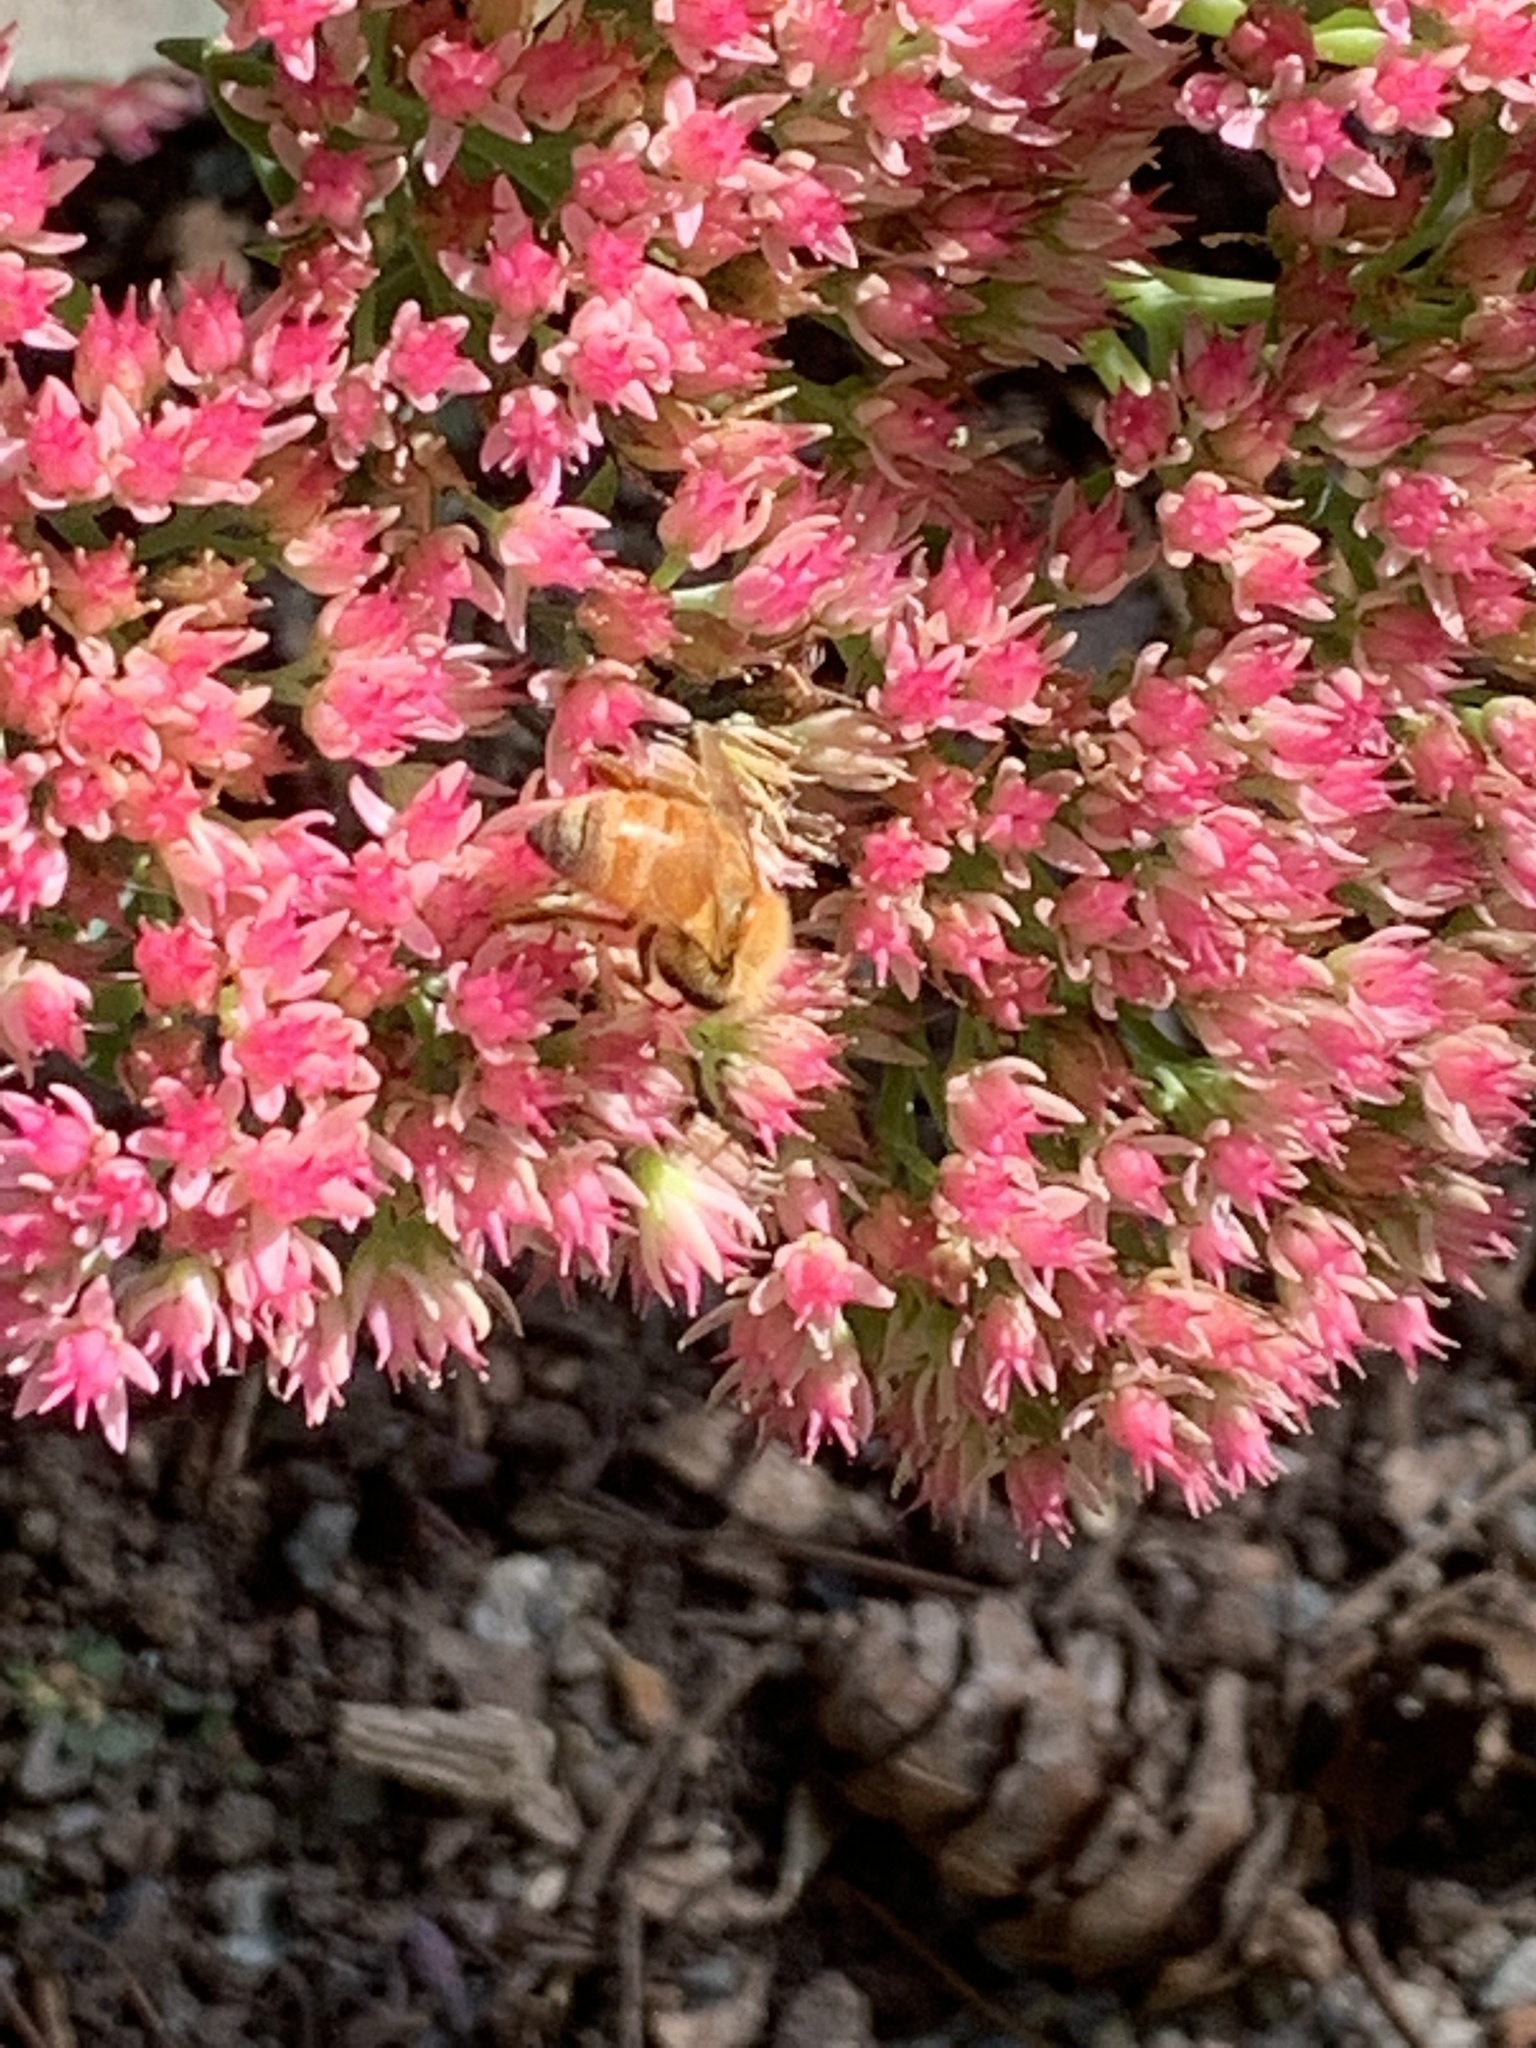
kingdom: Animalia
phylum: Arthropoda
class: Insecta
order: Hymenoptera
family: Apidae
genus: Apis
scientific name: Apis mellifera
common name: Honey bee
